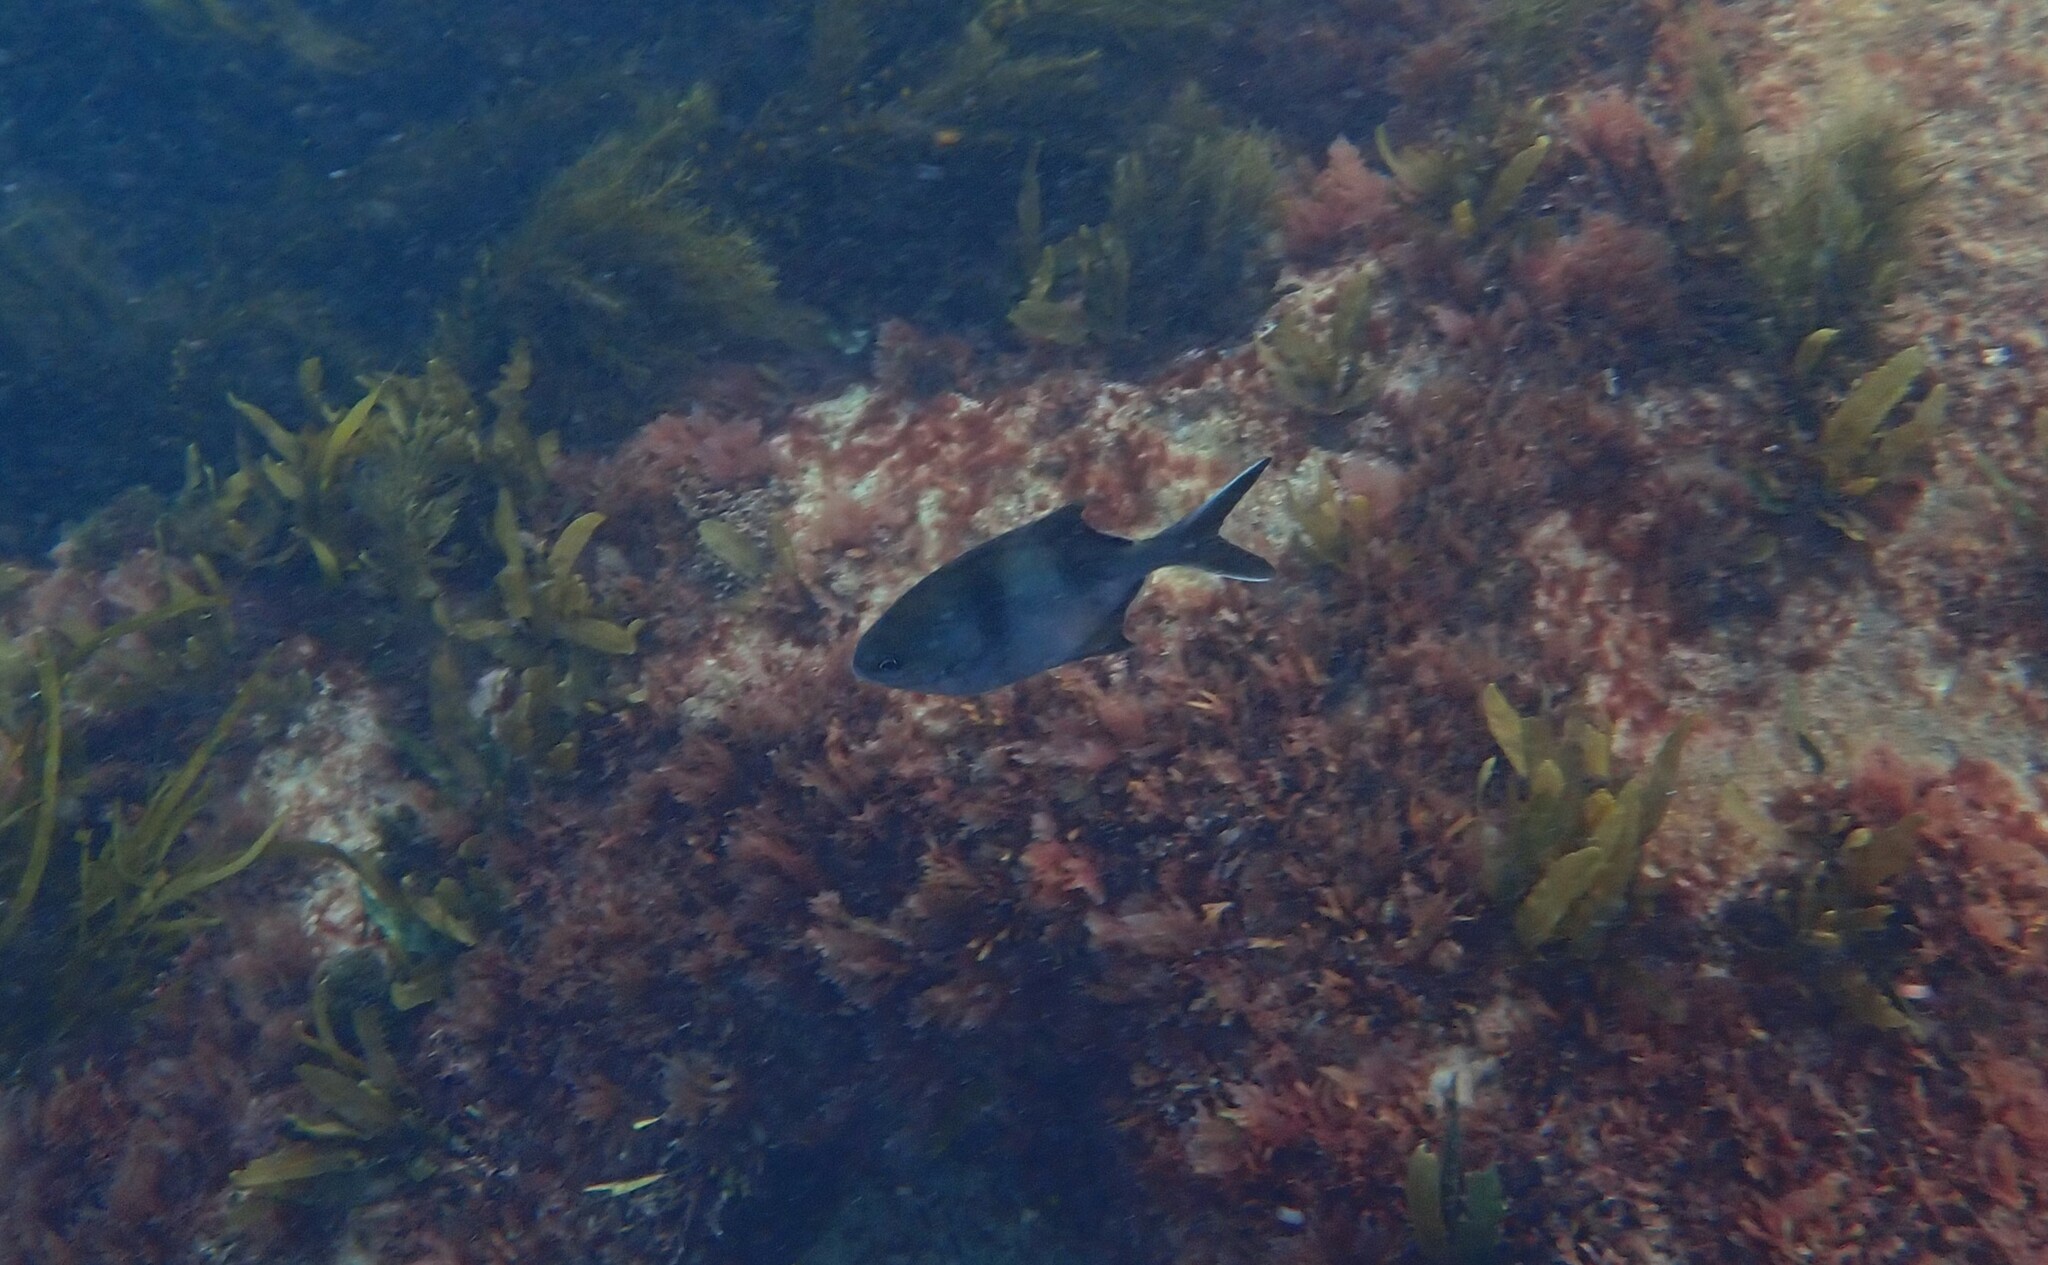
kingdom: Animalia
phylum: Chordata
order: Perciformes
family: Kyphosidae
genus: Scorpis
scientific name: Scorpis georgiana
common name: Banded sweep
